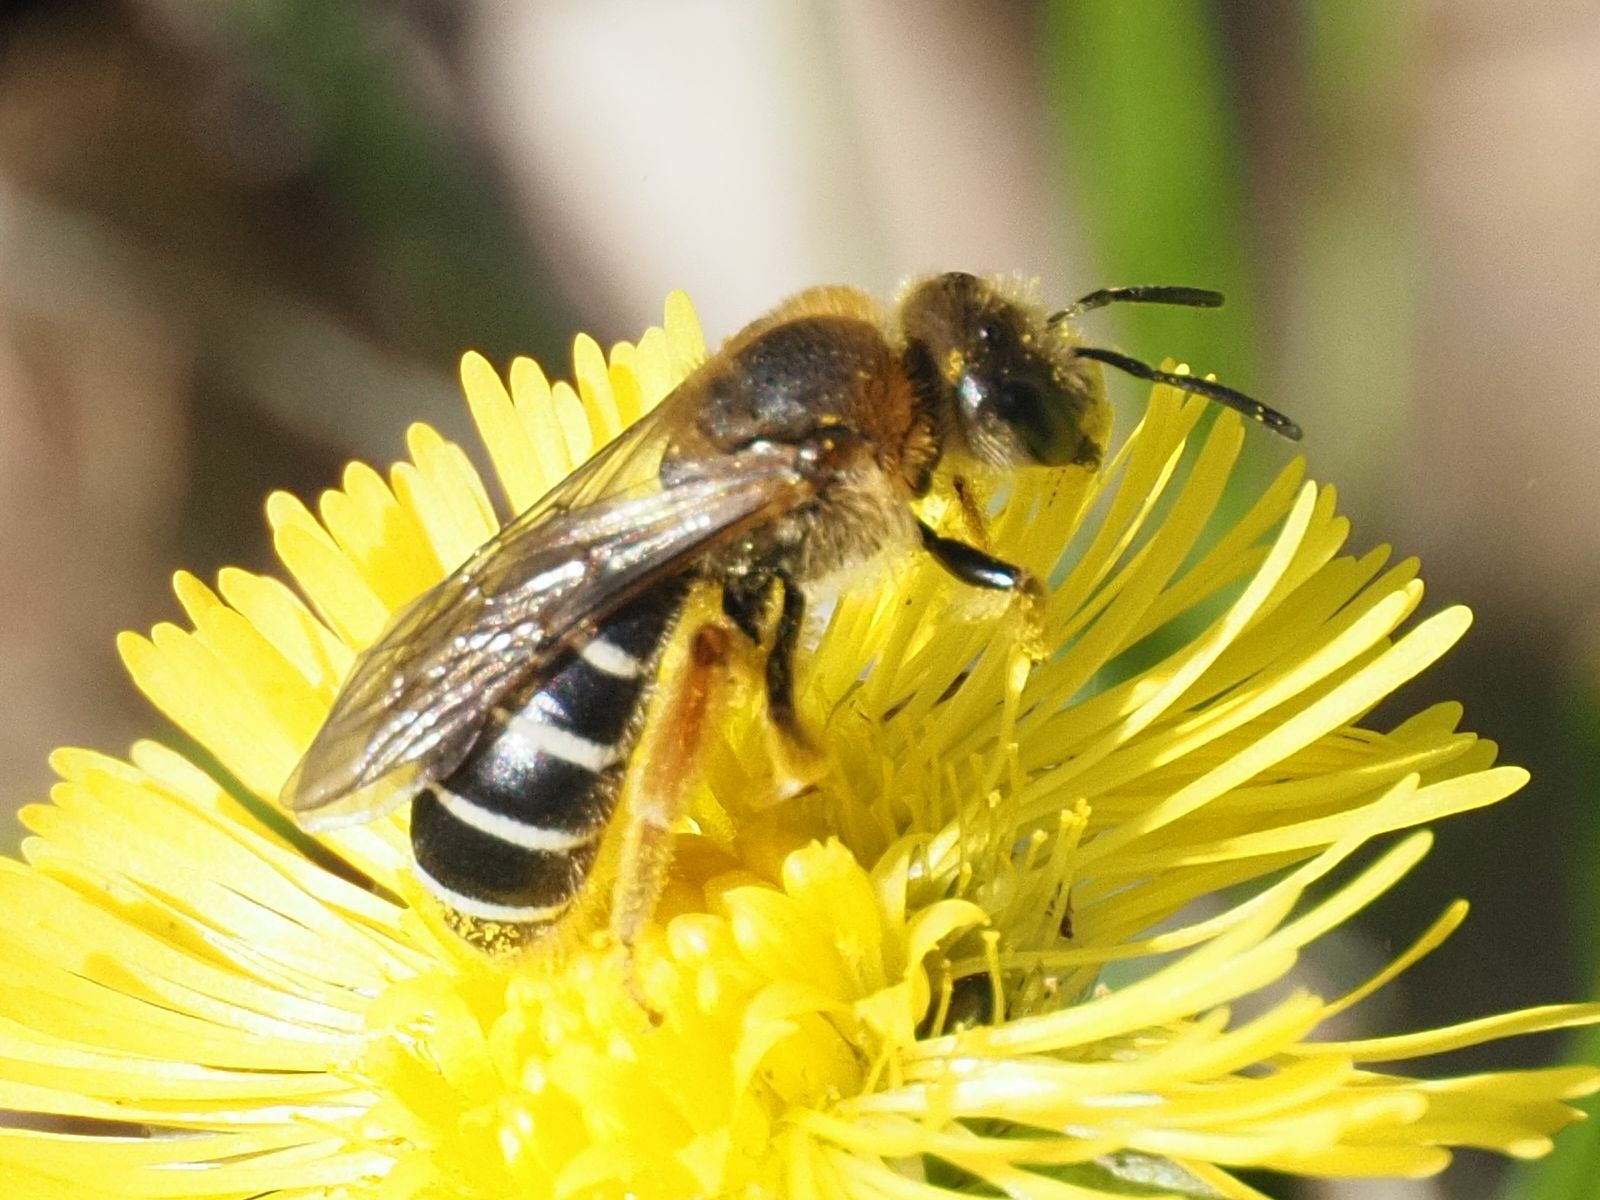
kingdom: Animalia
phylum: Arthropoda
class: Insecta
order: Hymenoptera
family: Halictidae
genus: Halictus
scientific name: Halictus rubicundus
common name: Orange-legged furrow bee
